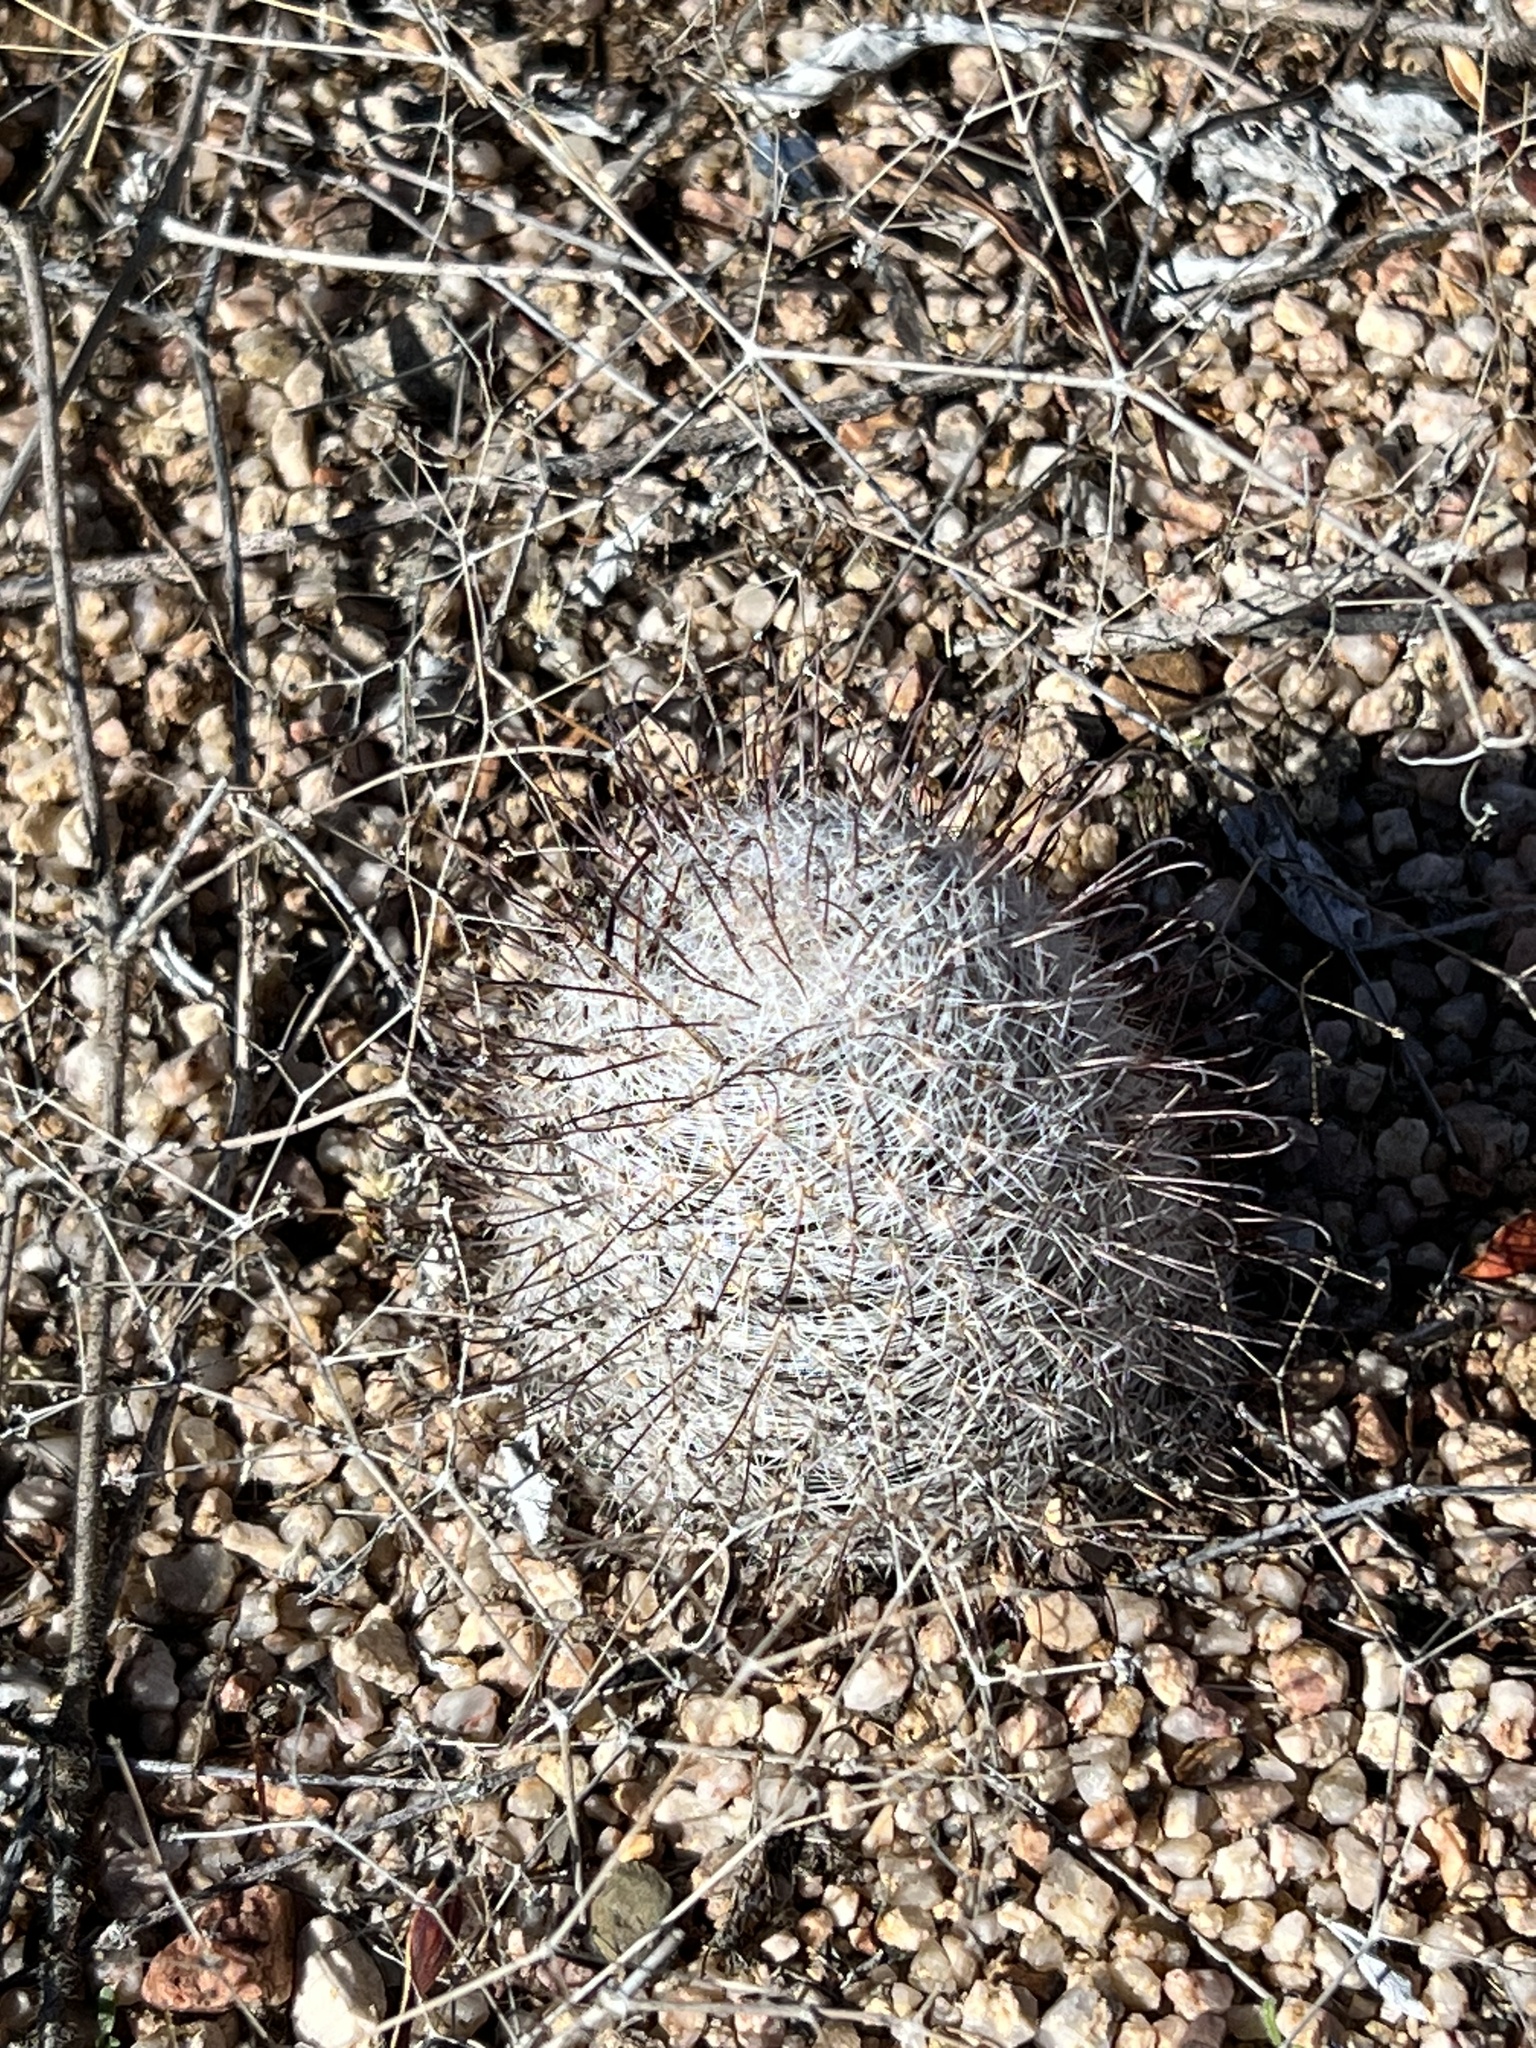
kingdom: Plantae
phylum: Tracheophyta
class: Magnoliopsida
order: Caryophyllales
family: Cactaceae
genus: Cochemiea
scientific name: Cochemiea grahamii
